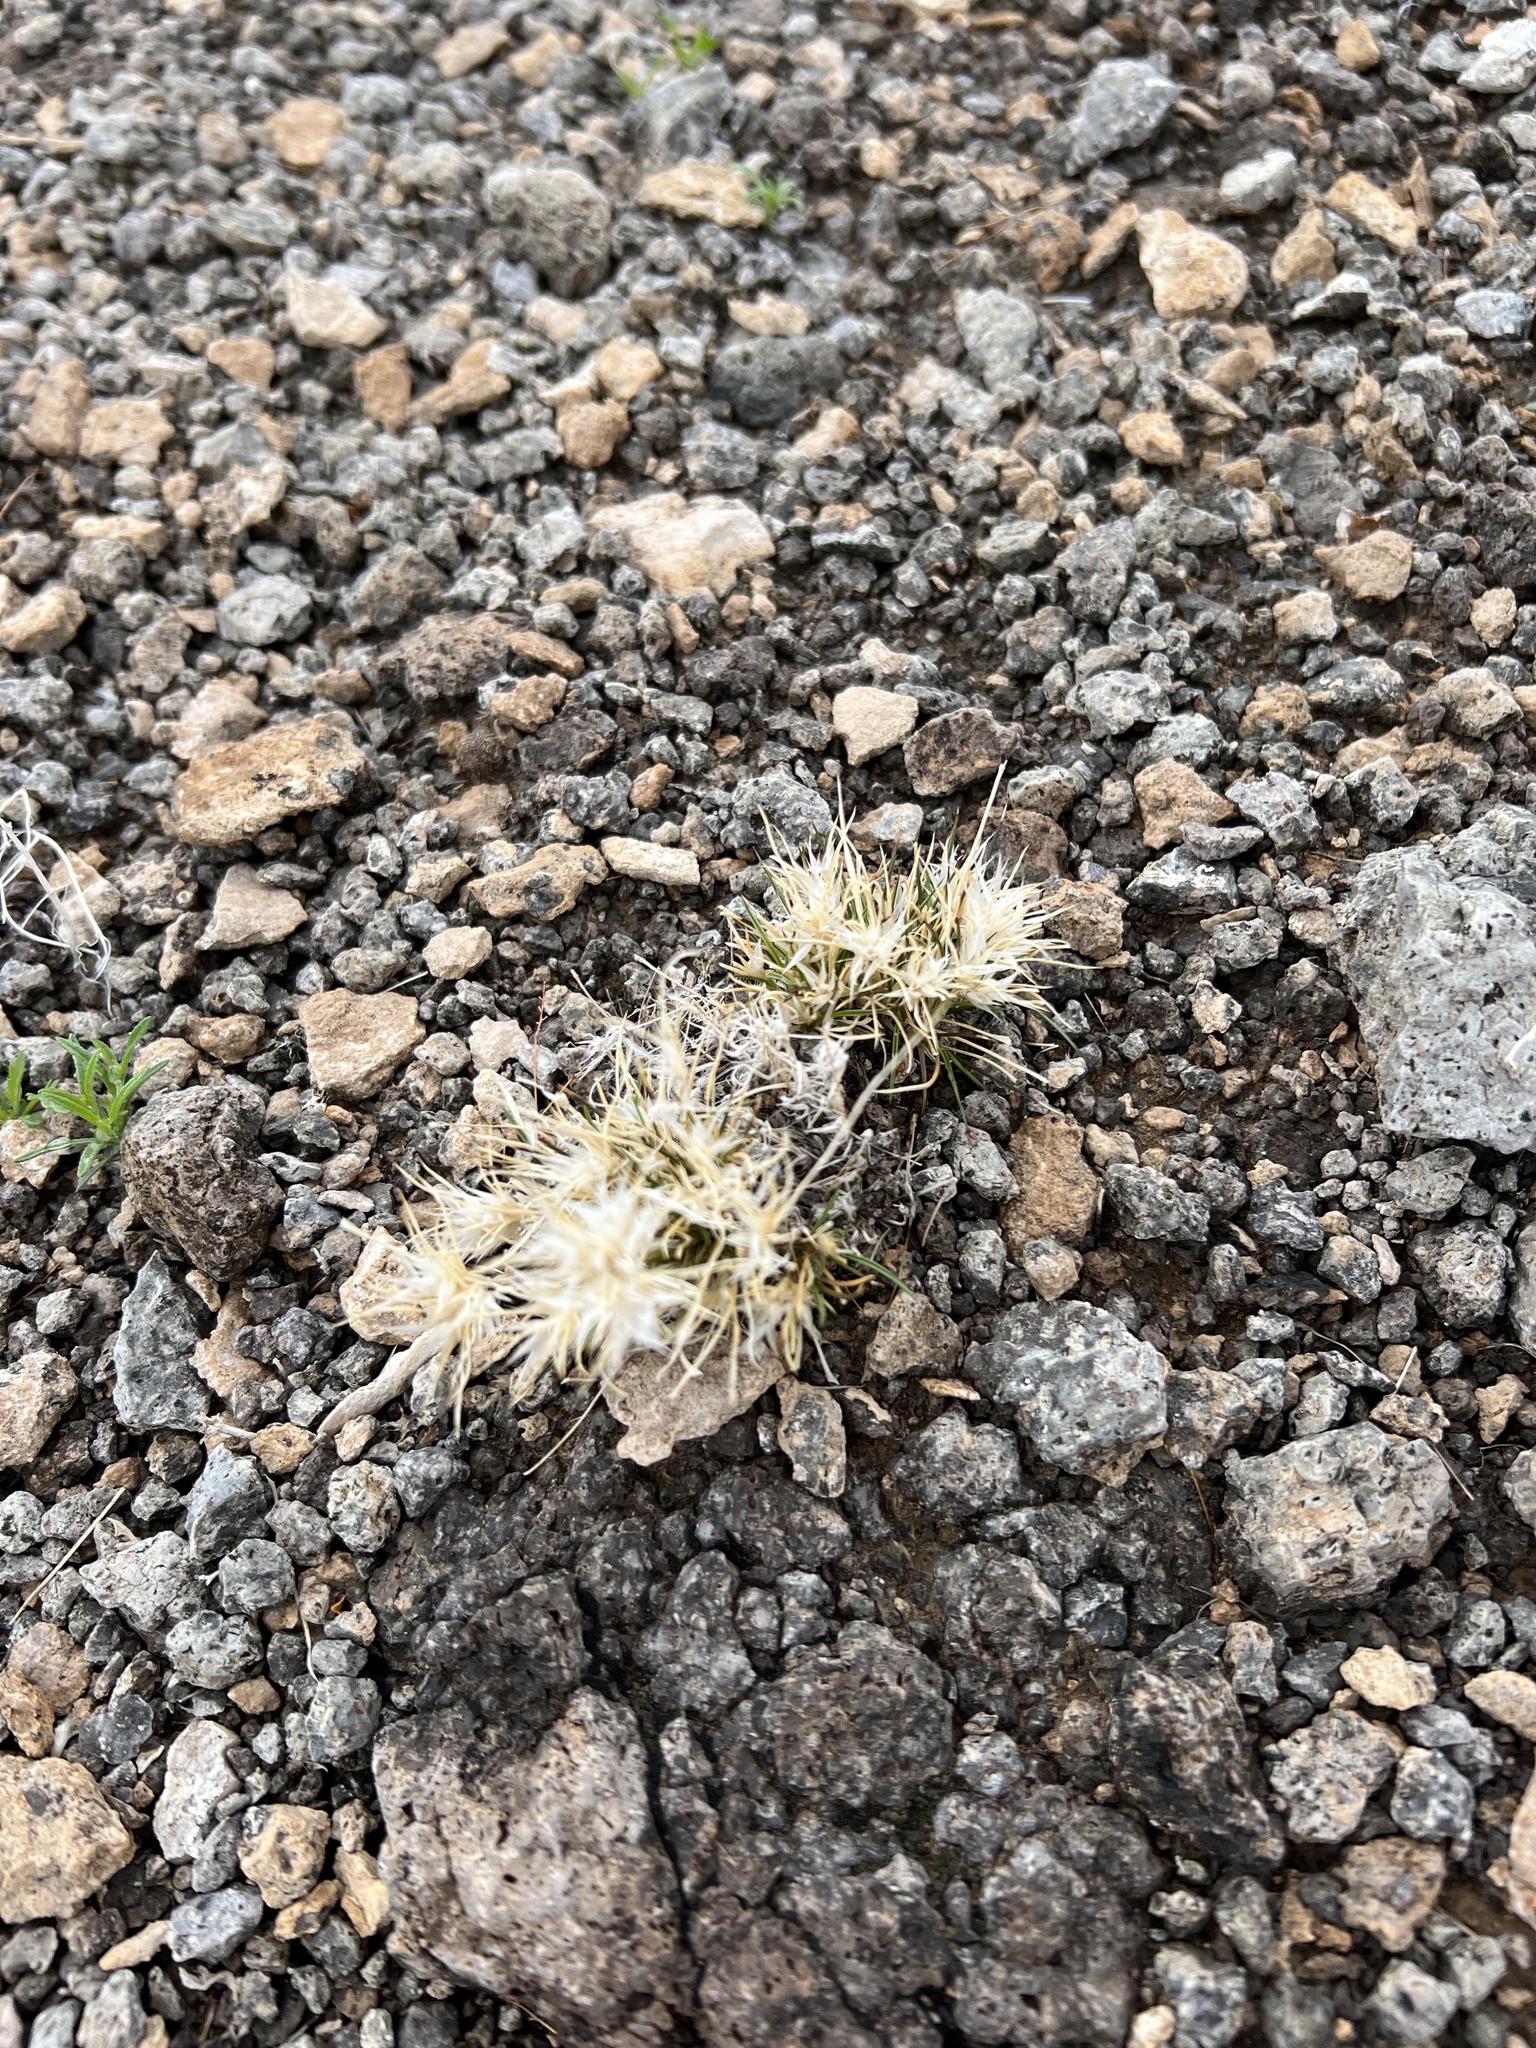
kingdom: Plantae
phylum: Tracheophyta
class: Liliopsida
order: Poales
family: Poaceae
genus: Dasyochloa
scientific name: Dasyochloa pulchella
